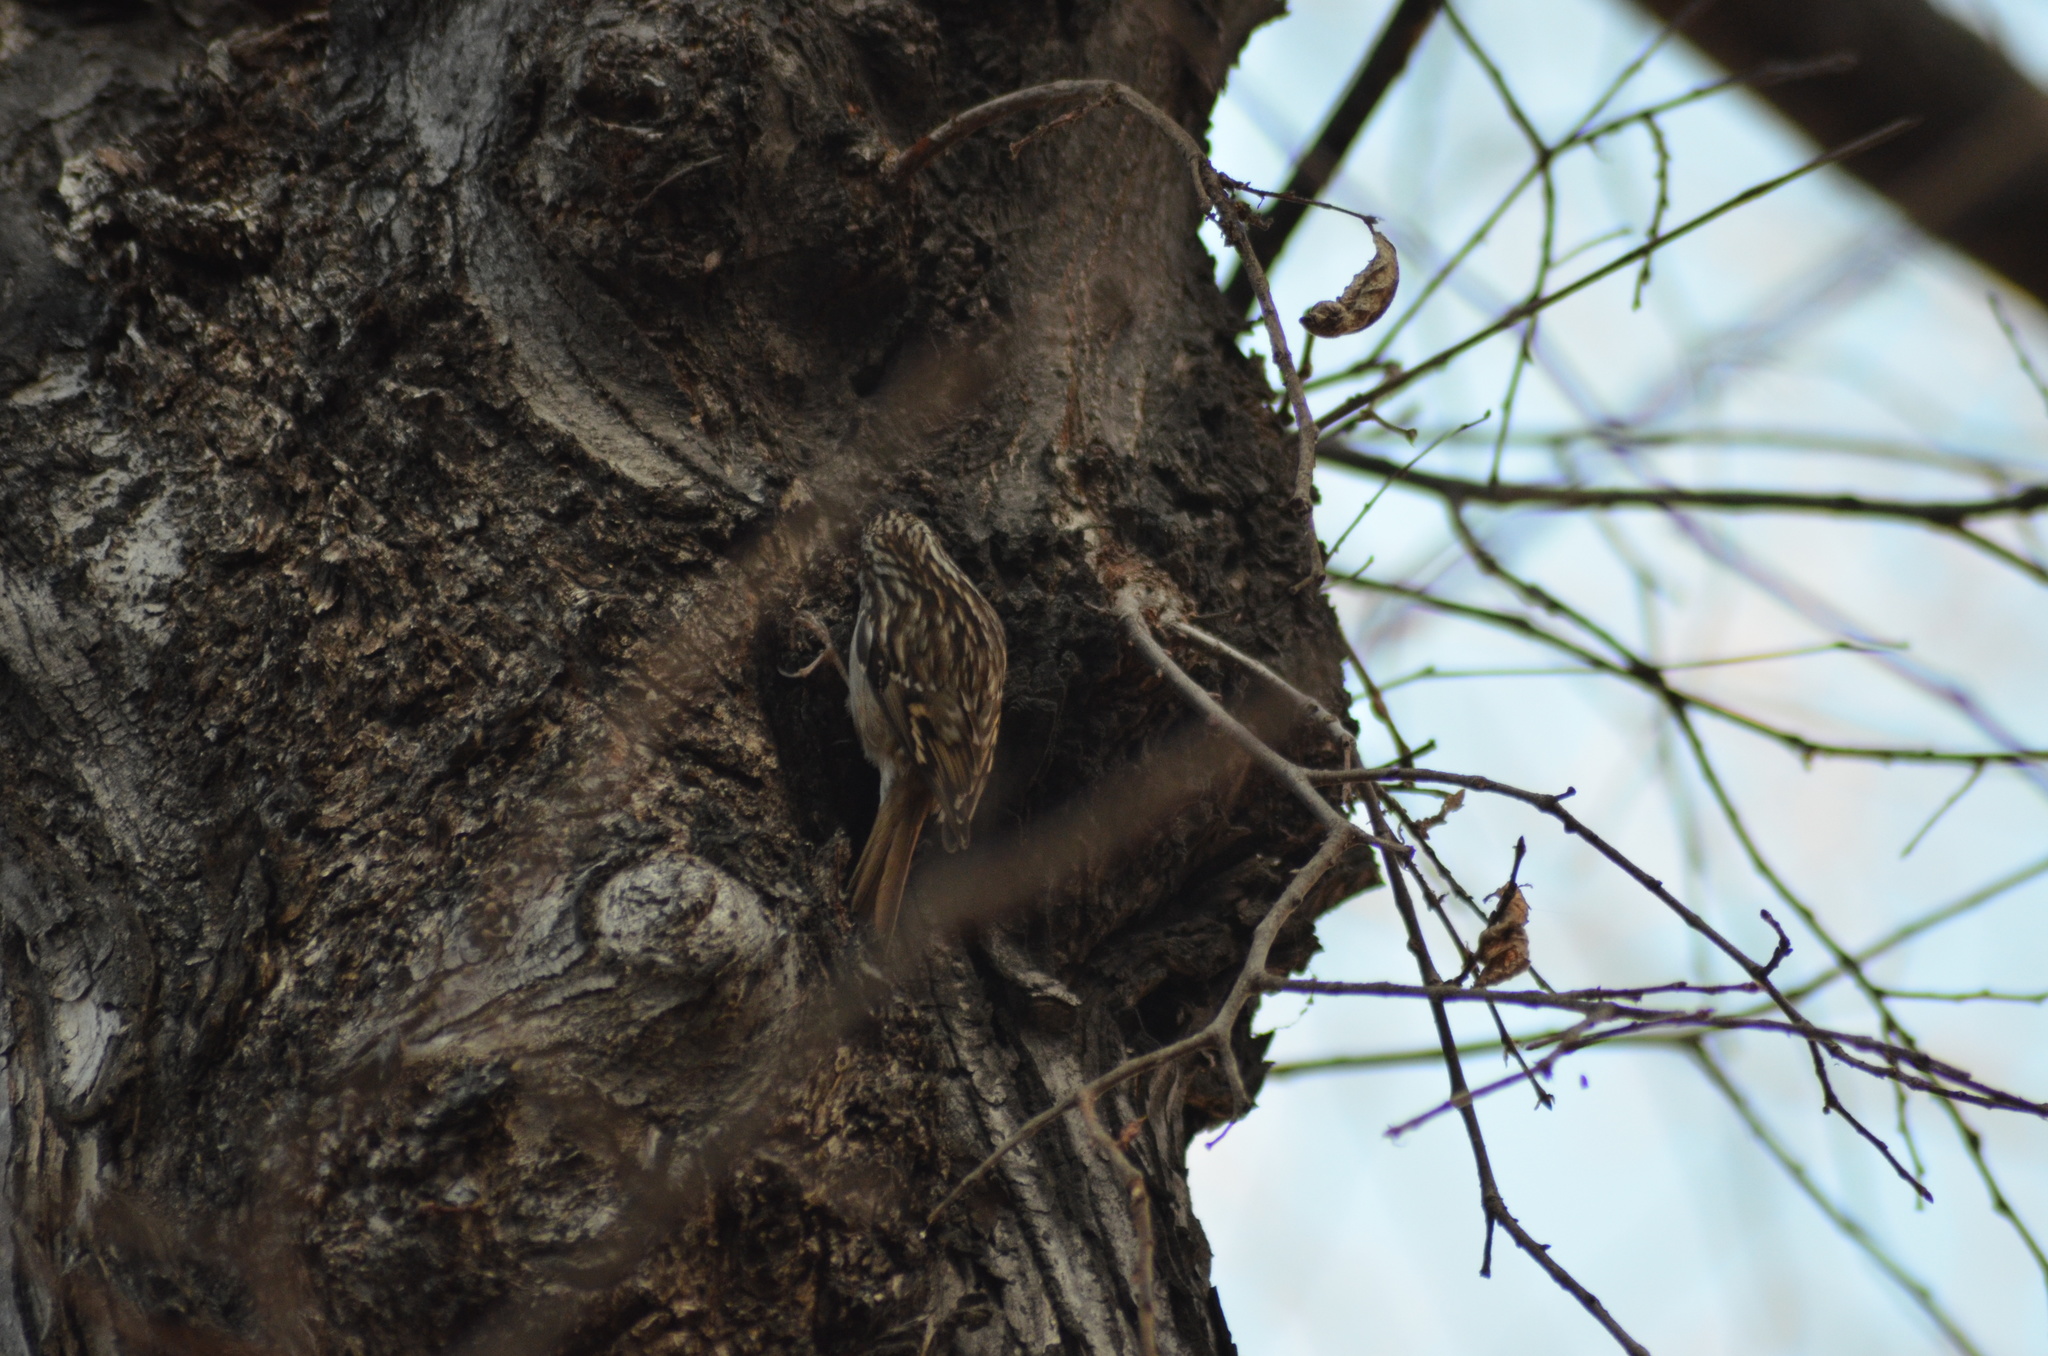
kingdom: Animalia
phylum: Chordata
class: Aves
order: Passeriformes
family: Certhiidae
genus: Certhia
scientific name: Certhia brachydactyla
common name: Short-toed treecreeper
